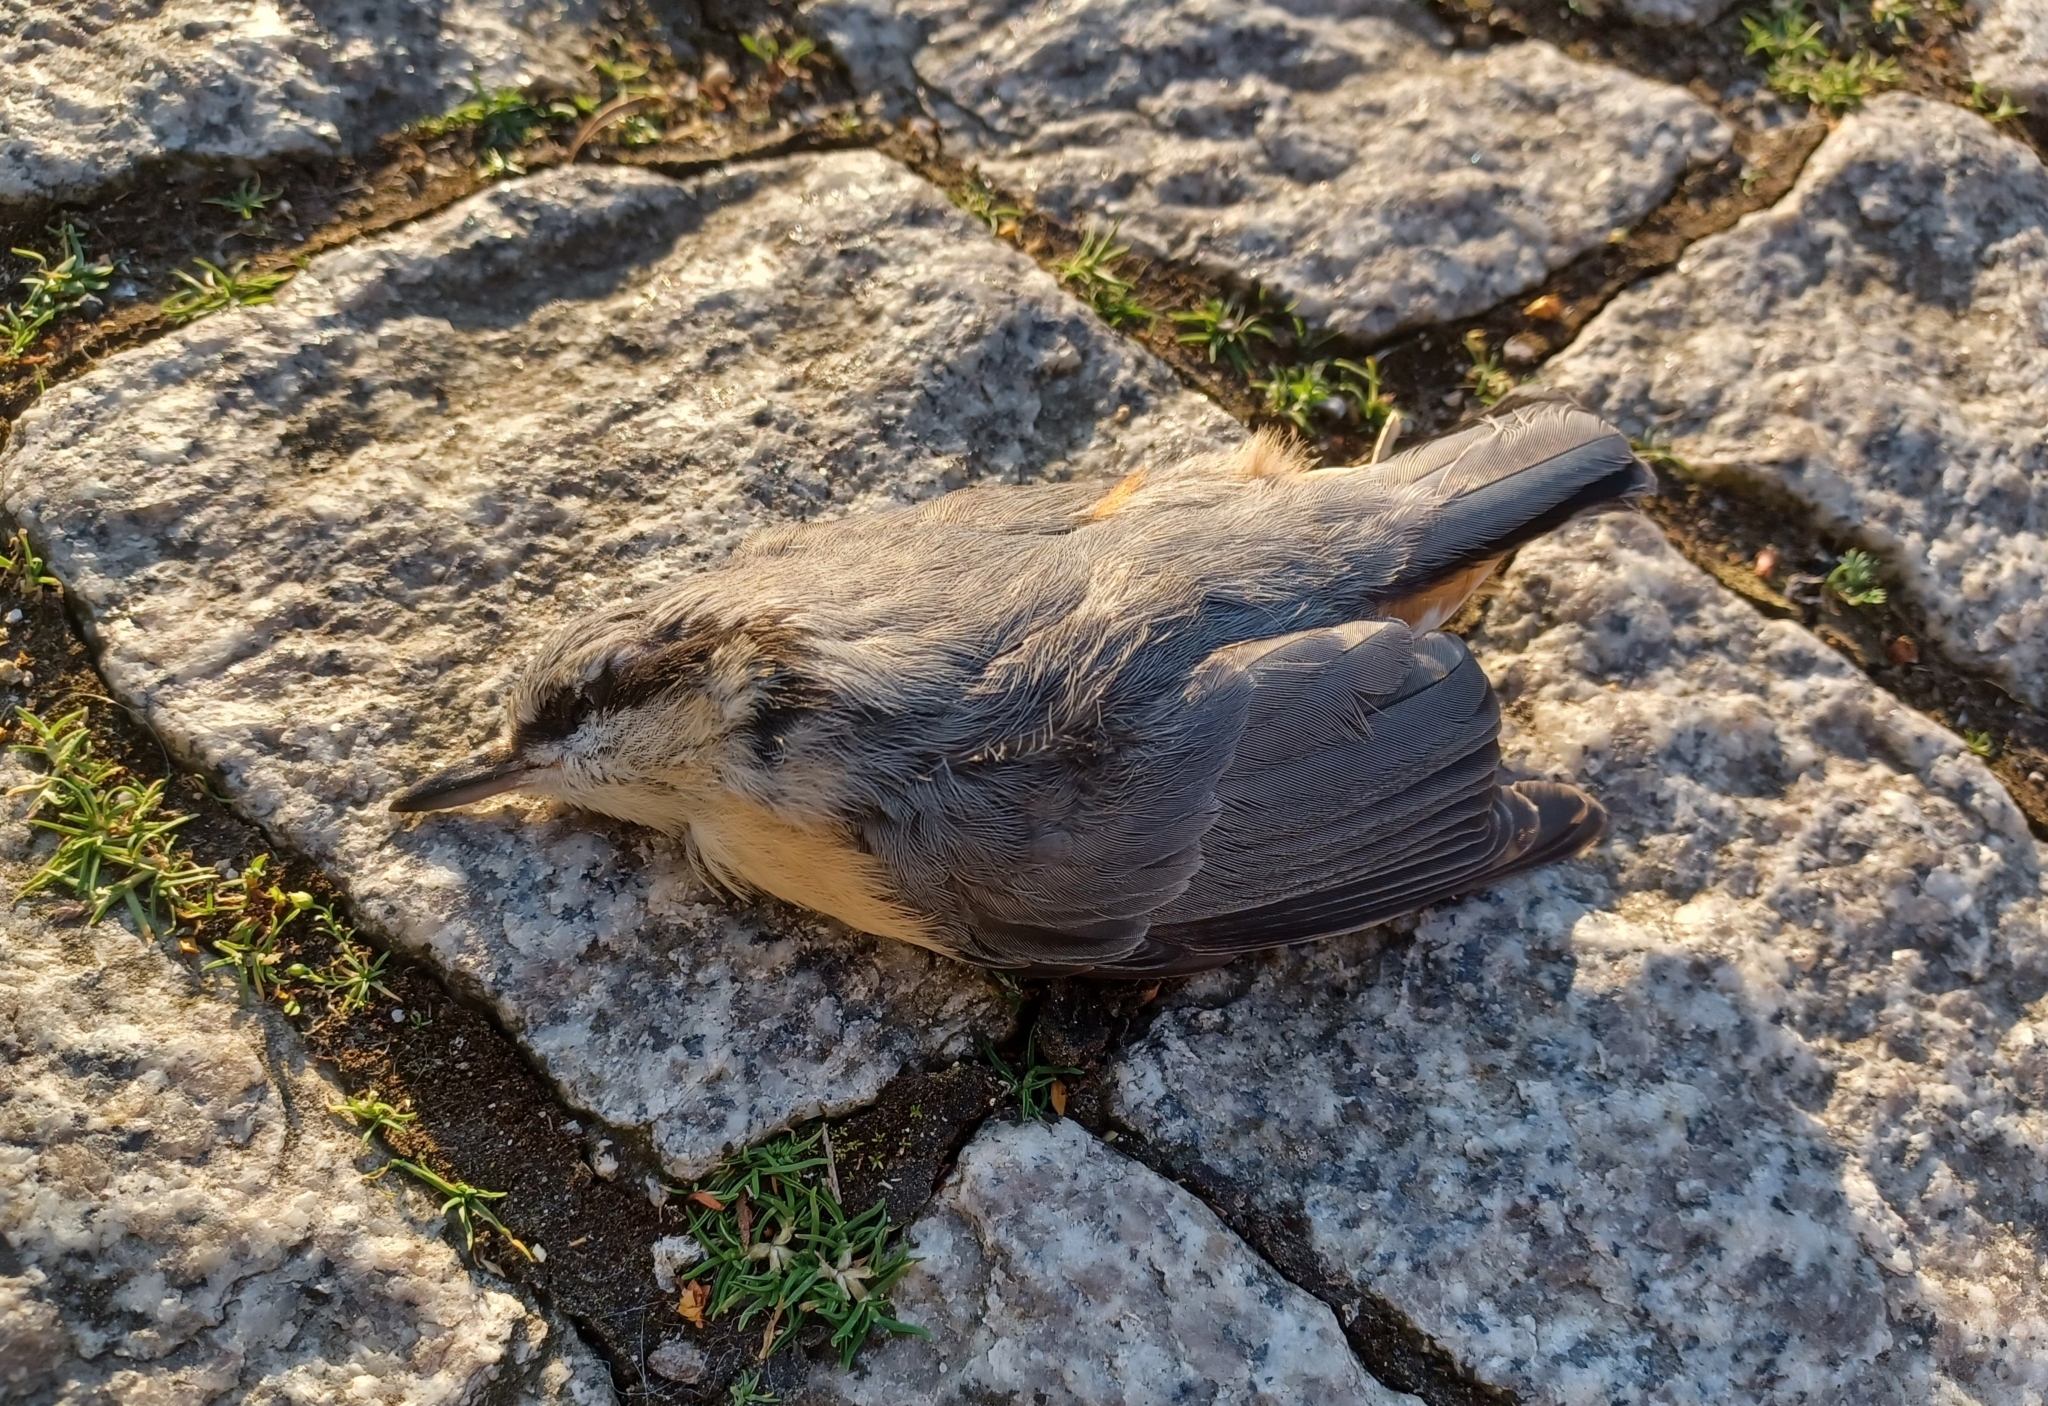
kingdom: Animalia
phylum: Chordata
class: Aves
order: Passeriformes
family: Sittidae
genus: Sitta
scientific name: Sitta europaea
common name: Eurasian nuthatch
